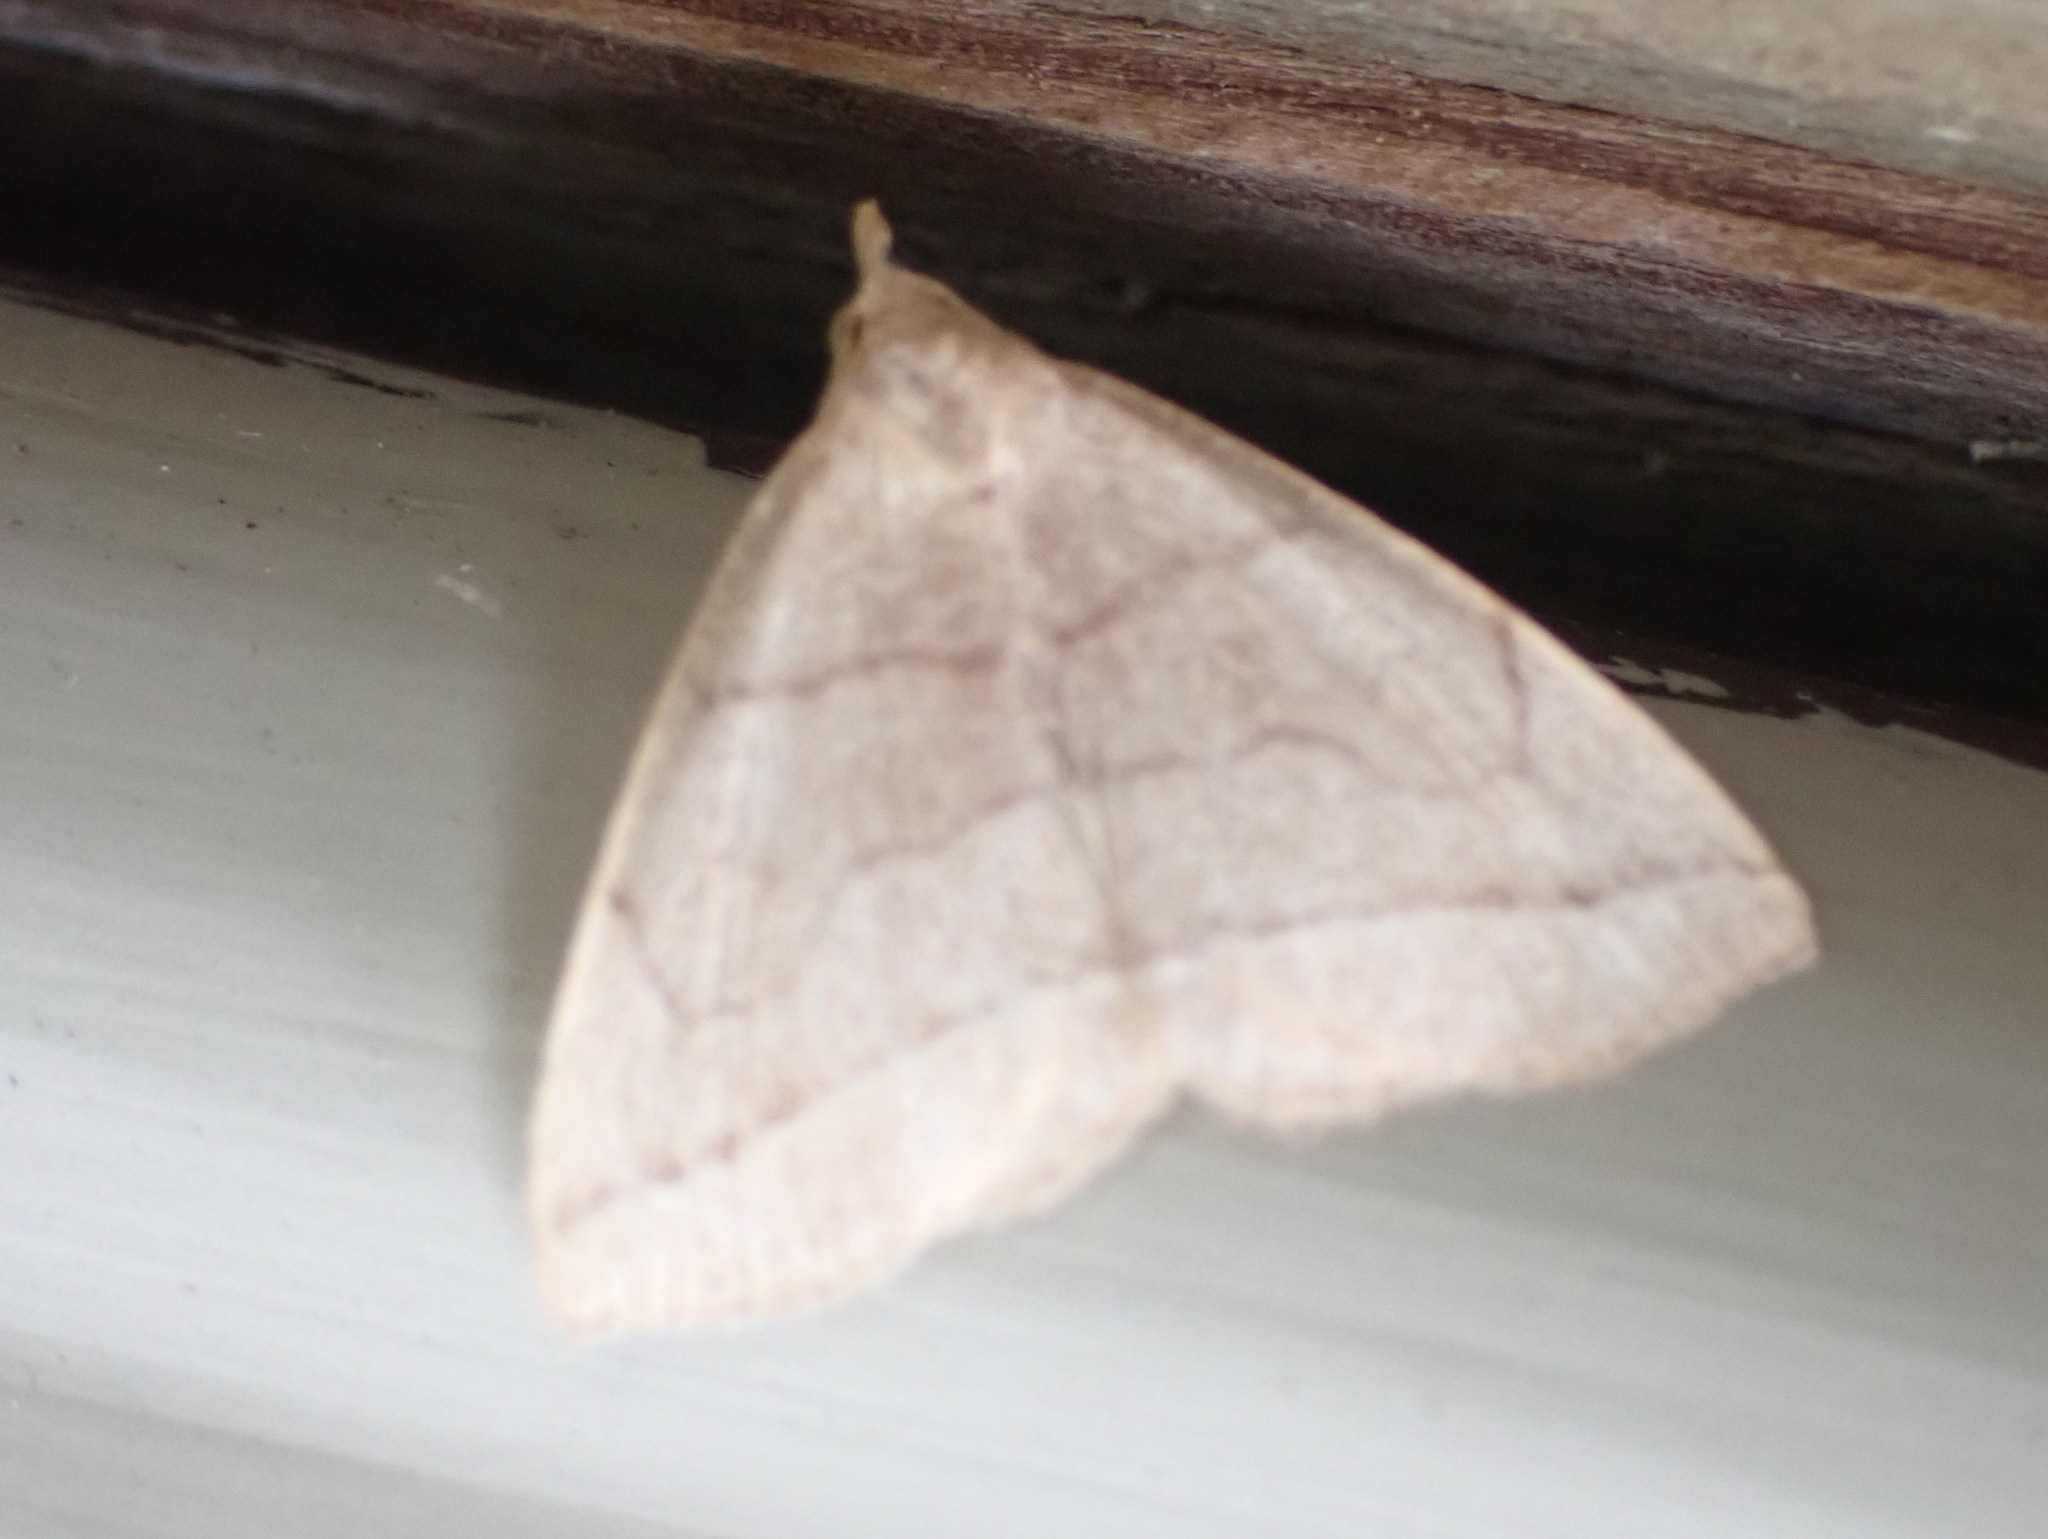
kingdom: Animalia
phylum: Arthropoda
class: Insecta
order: Lepidoptera
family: Erebidae
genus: Zanclognatha
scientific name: Zanclognatha cruralis
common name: Early fan-foot
